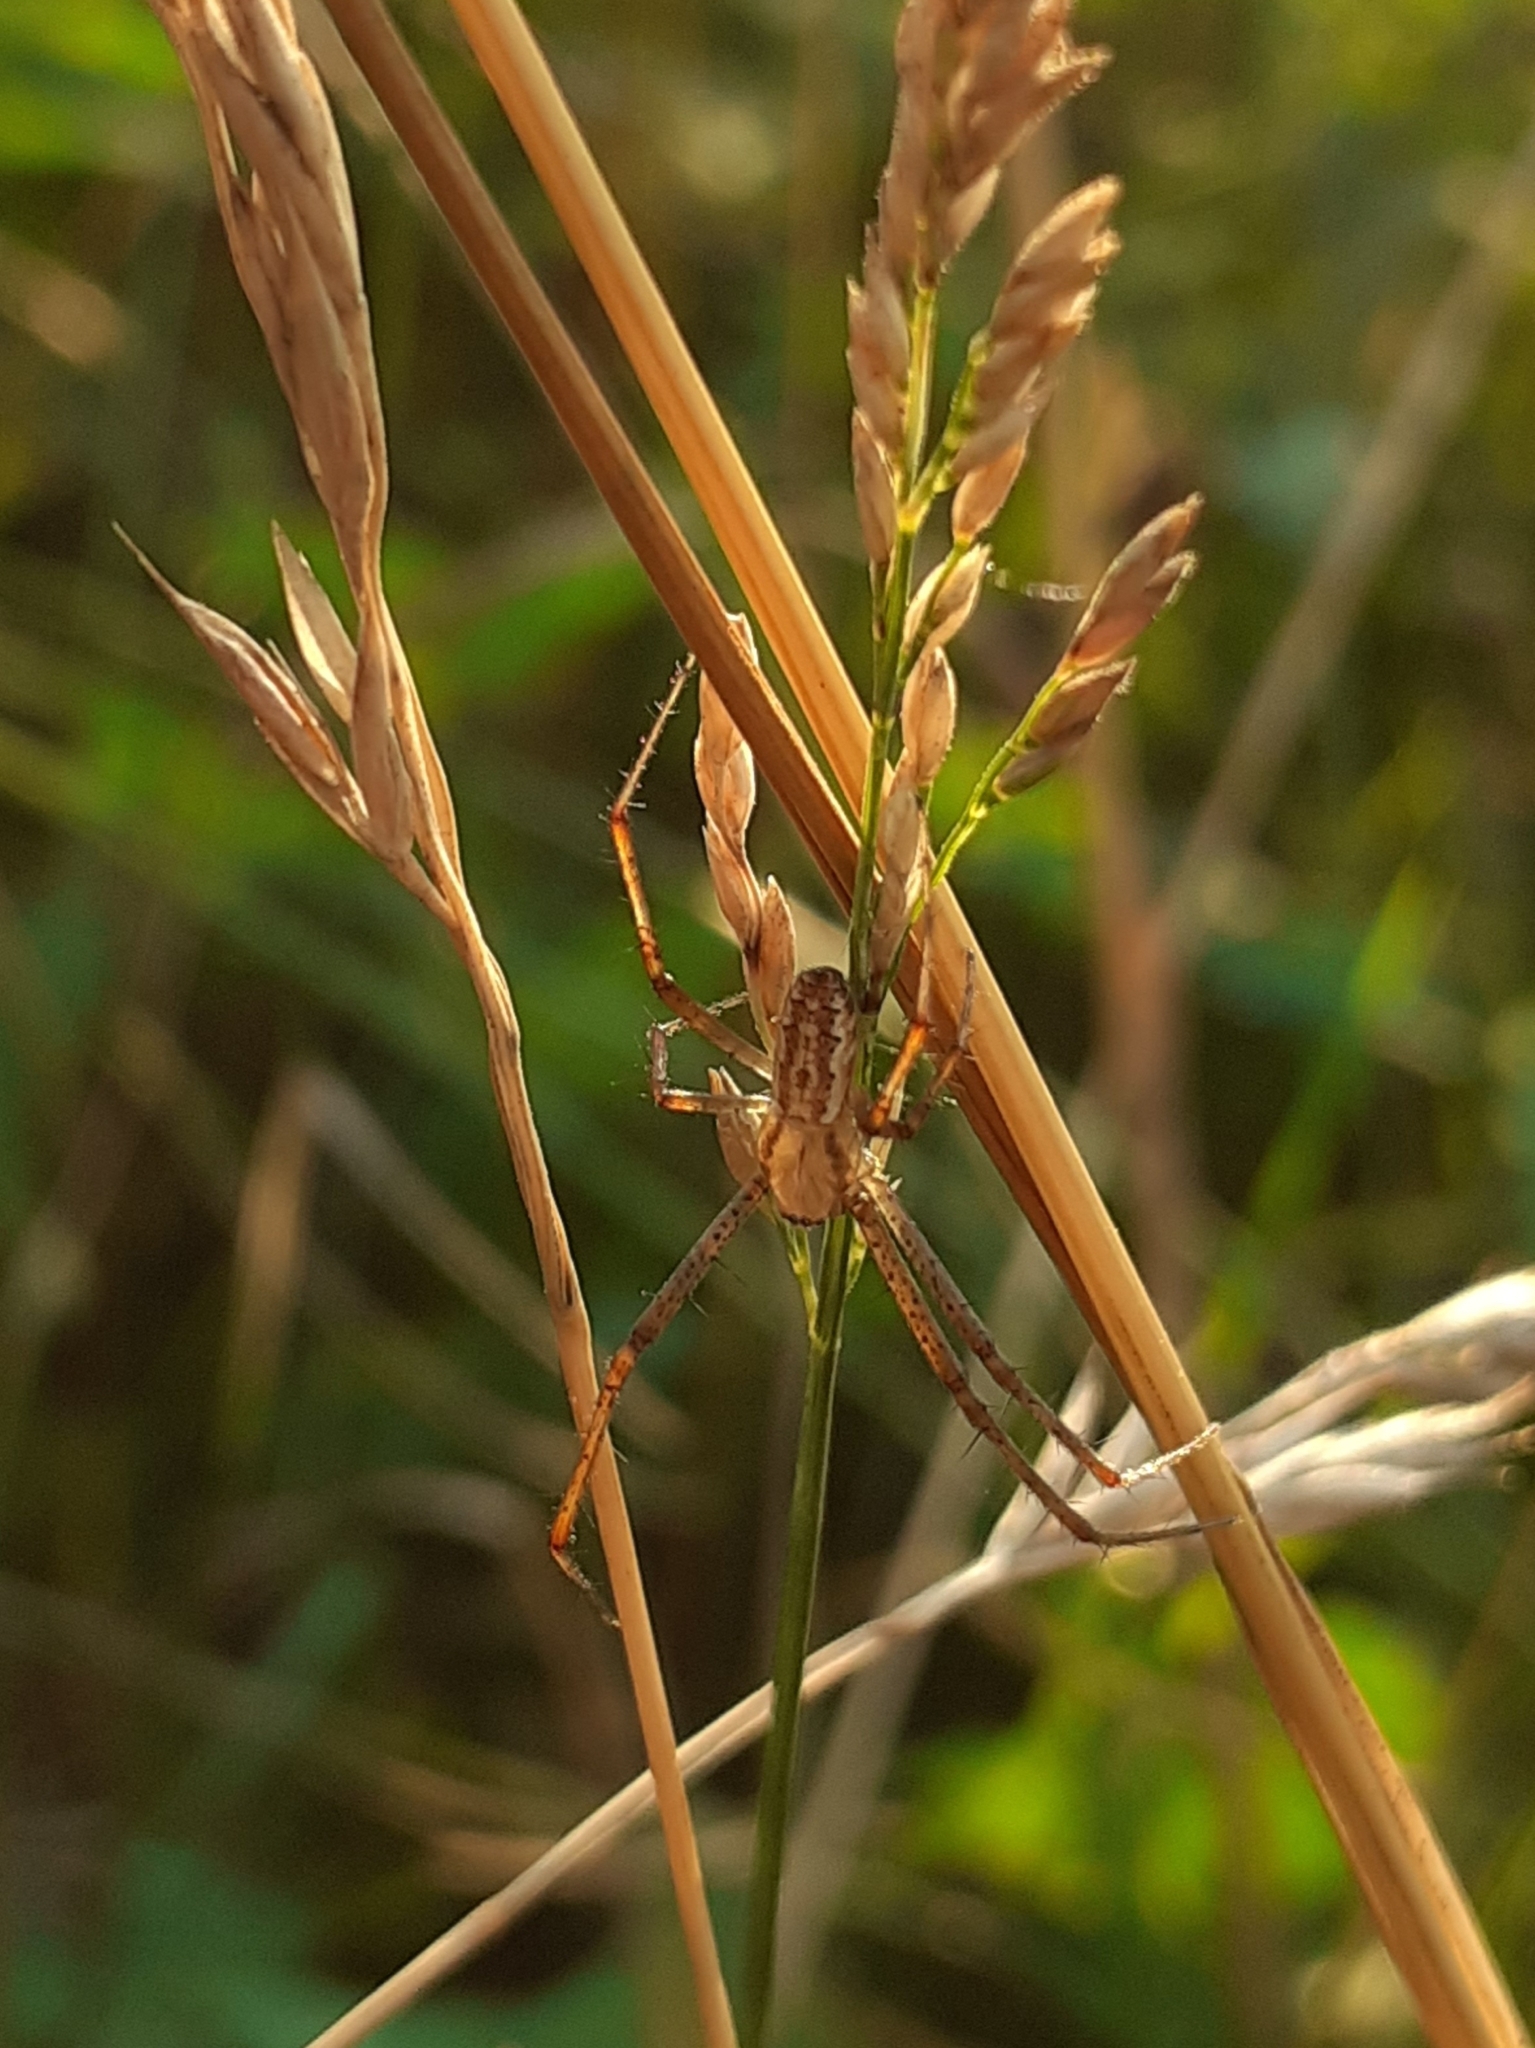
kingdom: Animalia
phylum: Arthropoda
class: Arachnida
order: Araneae
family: Araneidae
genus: Argiope
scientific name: Argiope bruennichi
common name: Wasp spider
